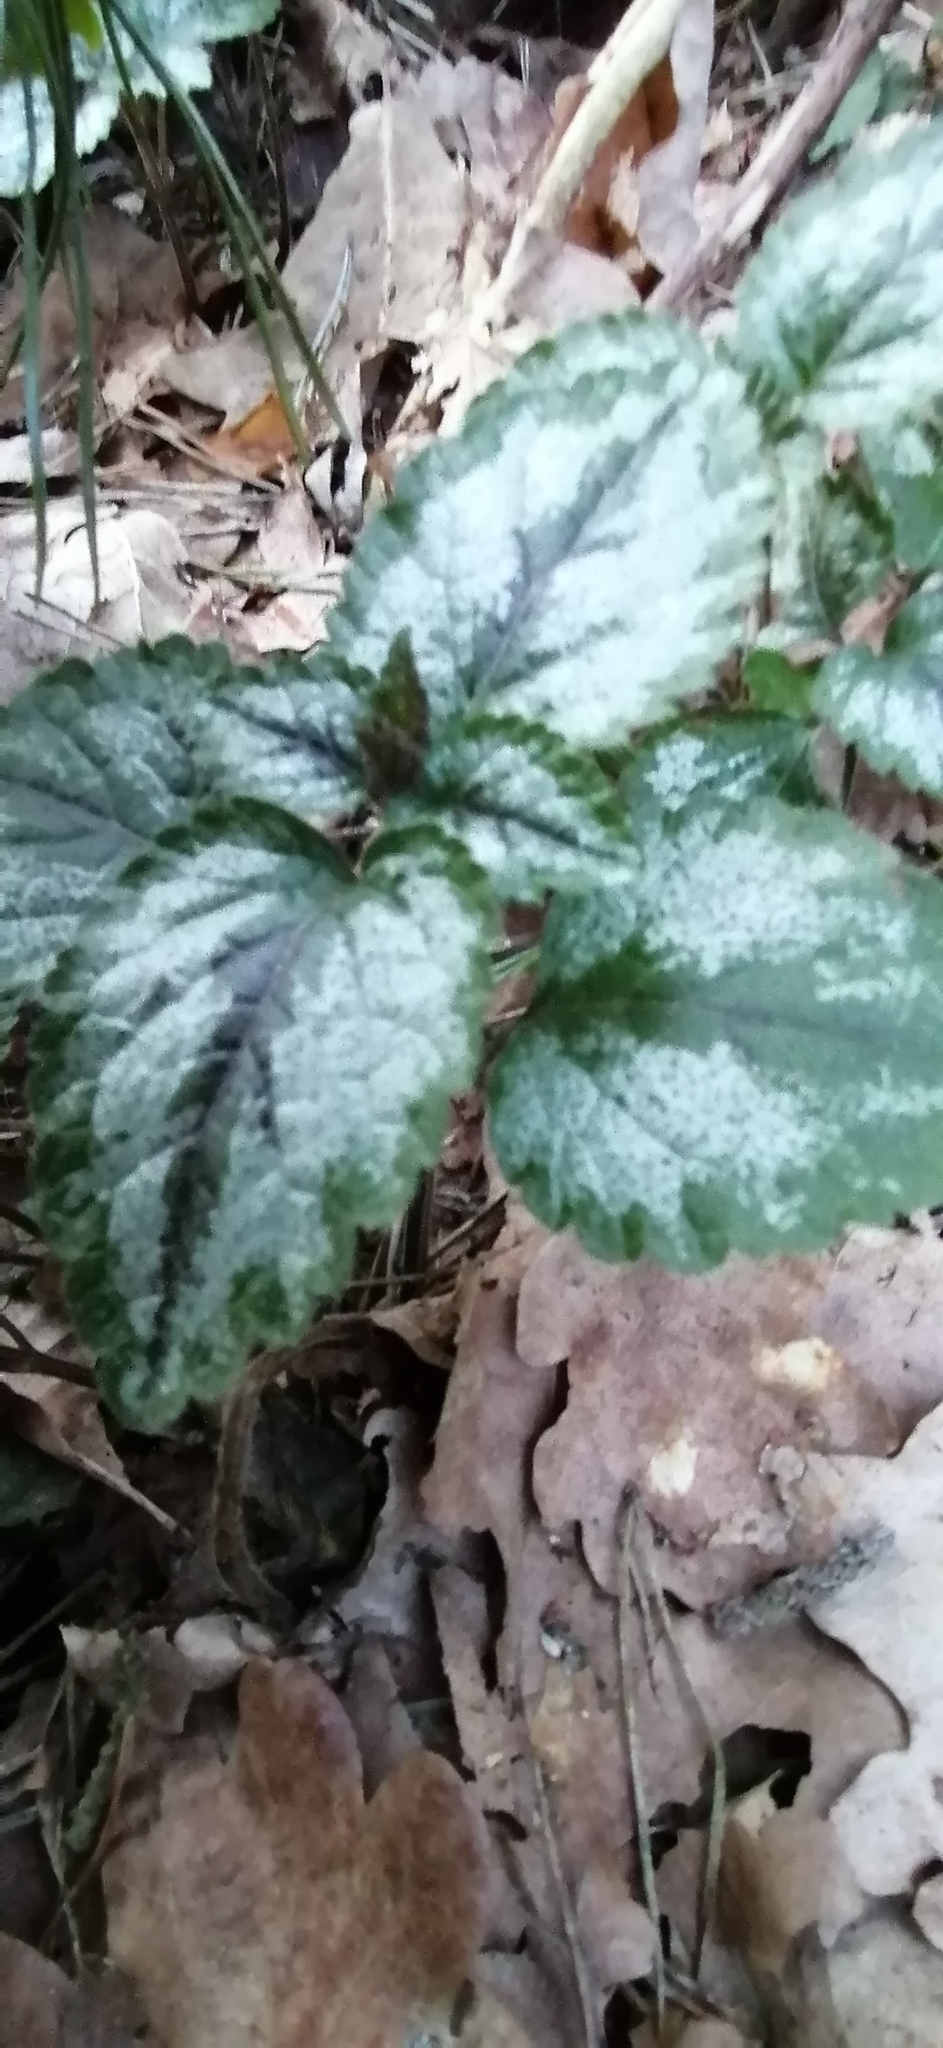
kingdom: Plantae
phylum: Tracheophyta
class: Magnoliopsida
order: Lamiales
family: Lamiaceae
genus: Lamium
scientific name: Lamium galeobdolon
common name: Yellow archangel
